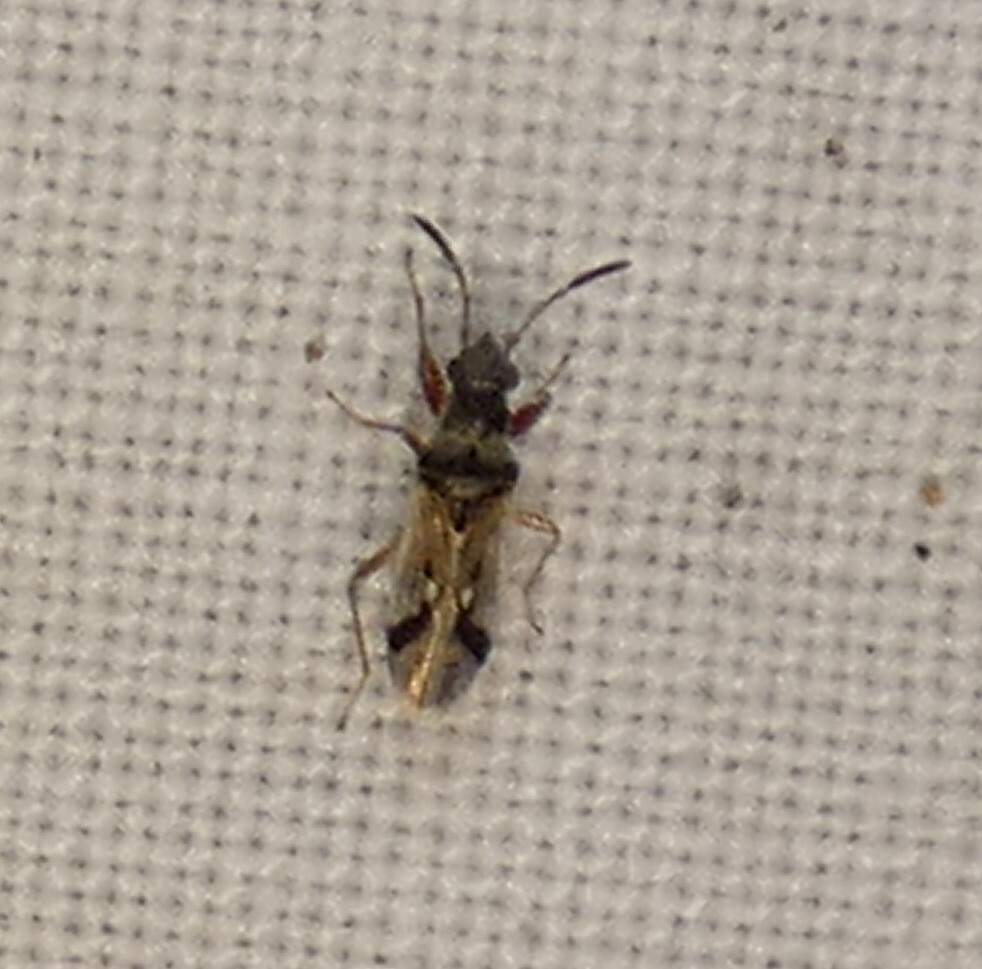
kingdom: Animalia
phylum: Arthropoda
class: Insecta
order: Hemiptera
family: Rhyparochromidae
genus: Pseudopachybrachius
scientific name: Pseudopachybrachius vinctus
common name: Dirt-colored seed bug
